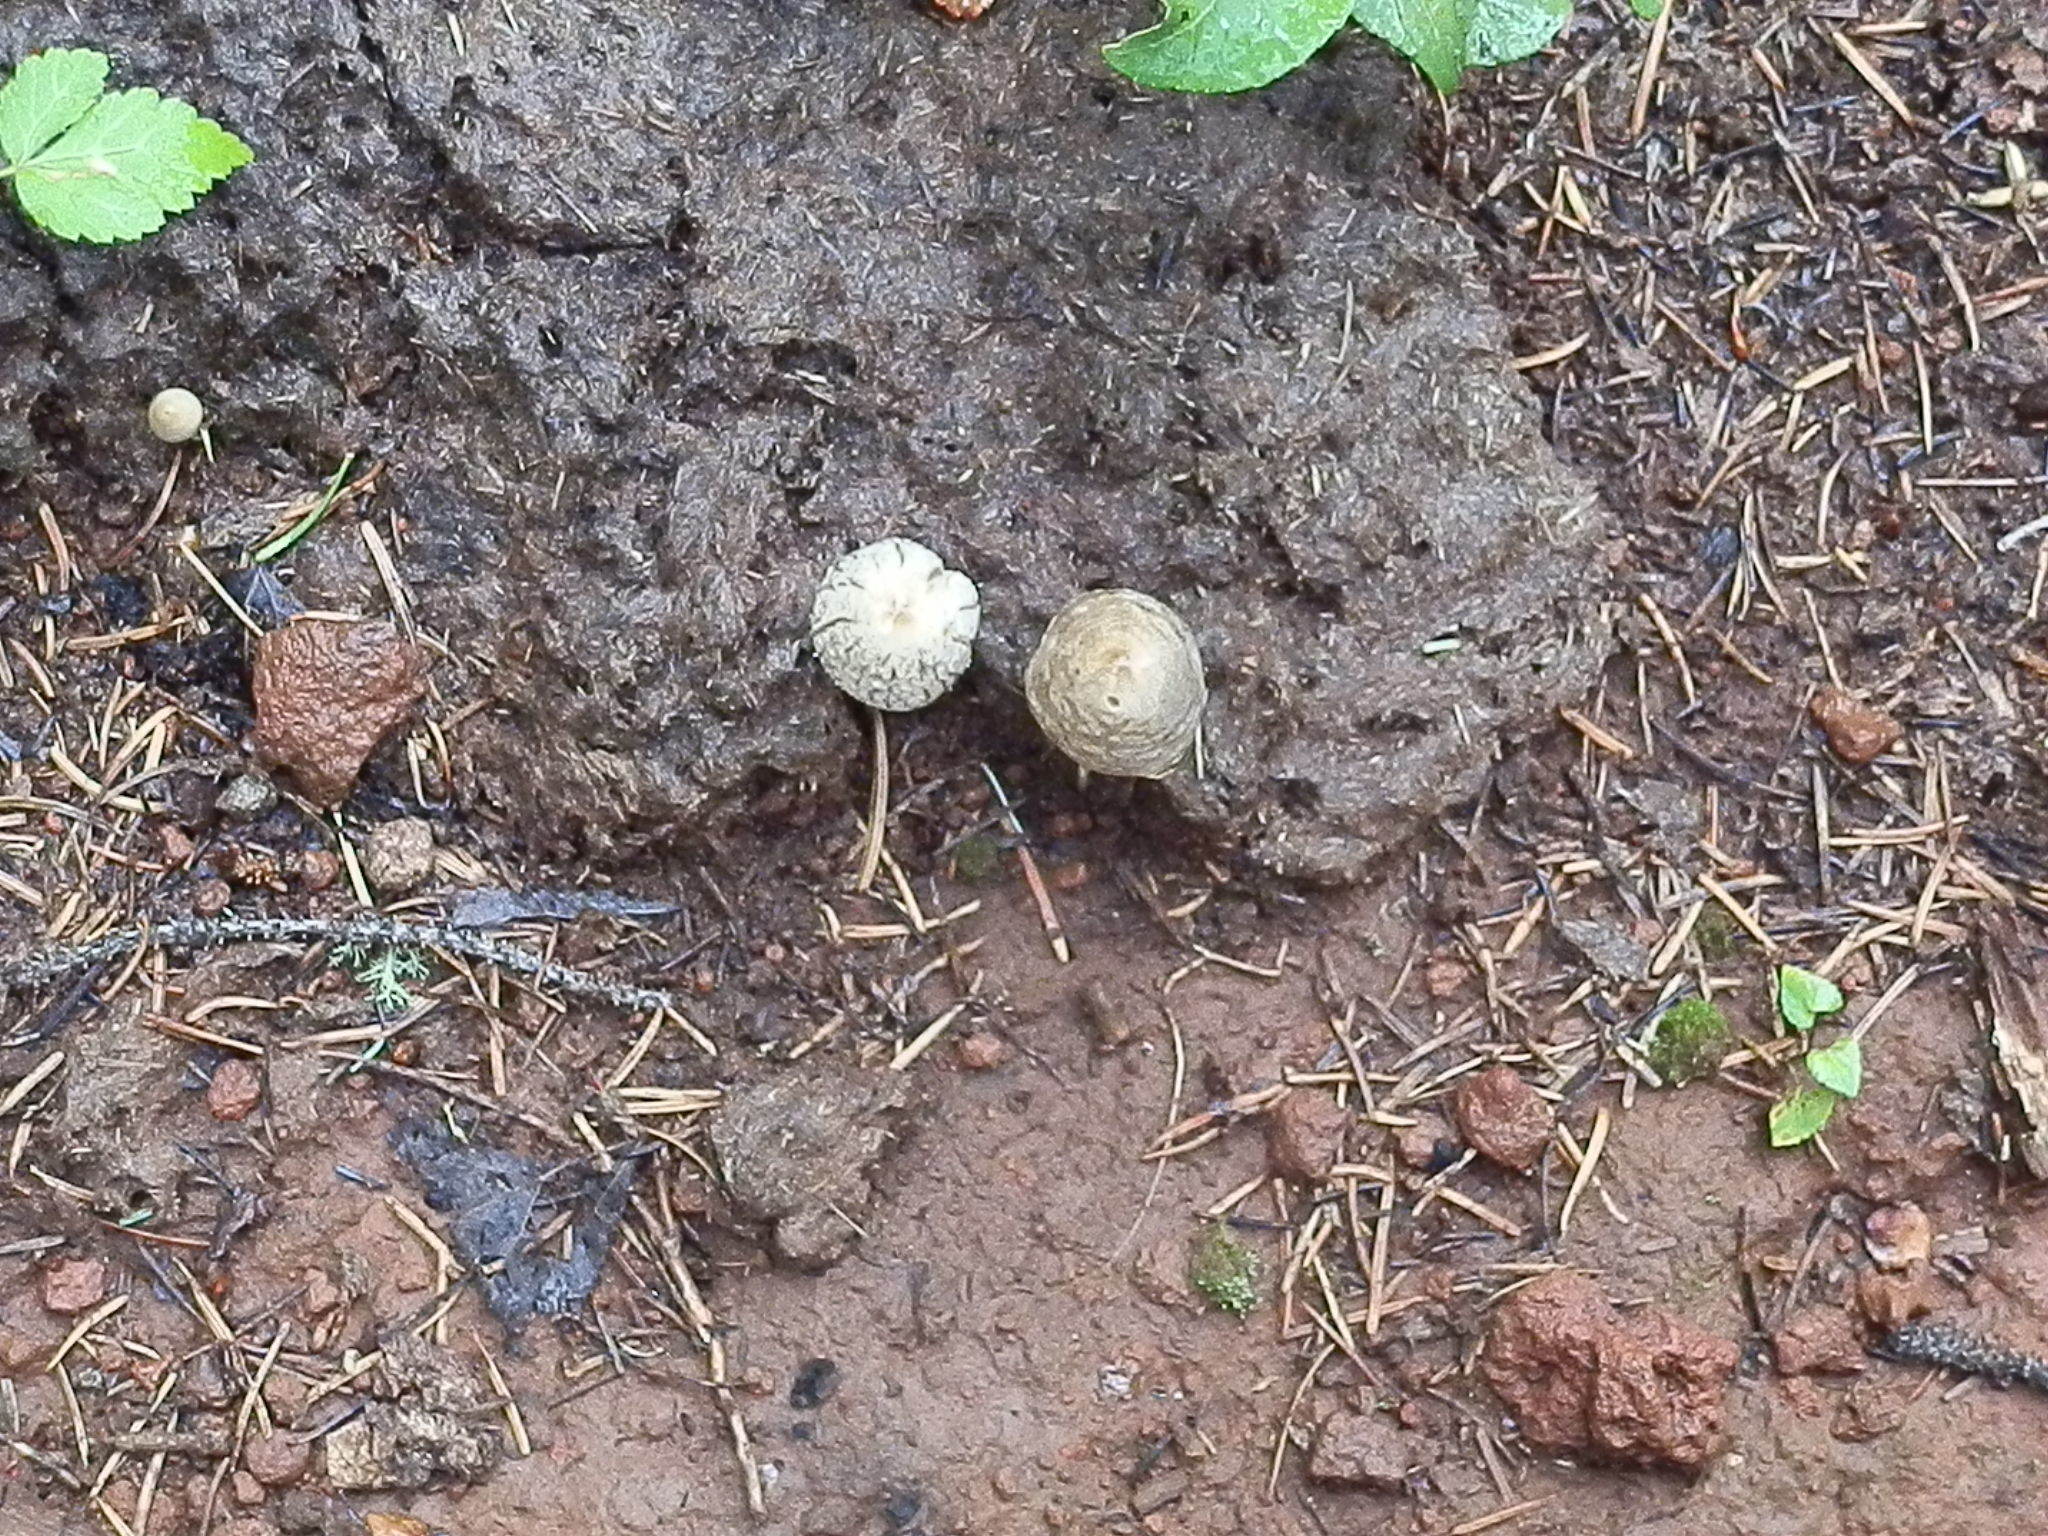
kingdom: Fungi
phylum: Basidiomycota
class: Agaricomycetes
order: Agaricales
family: Bolbitiaceae
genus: Panaeolus
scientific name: Panaeolus papilionaceus
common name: Petticoat mottlegill
